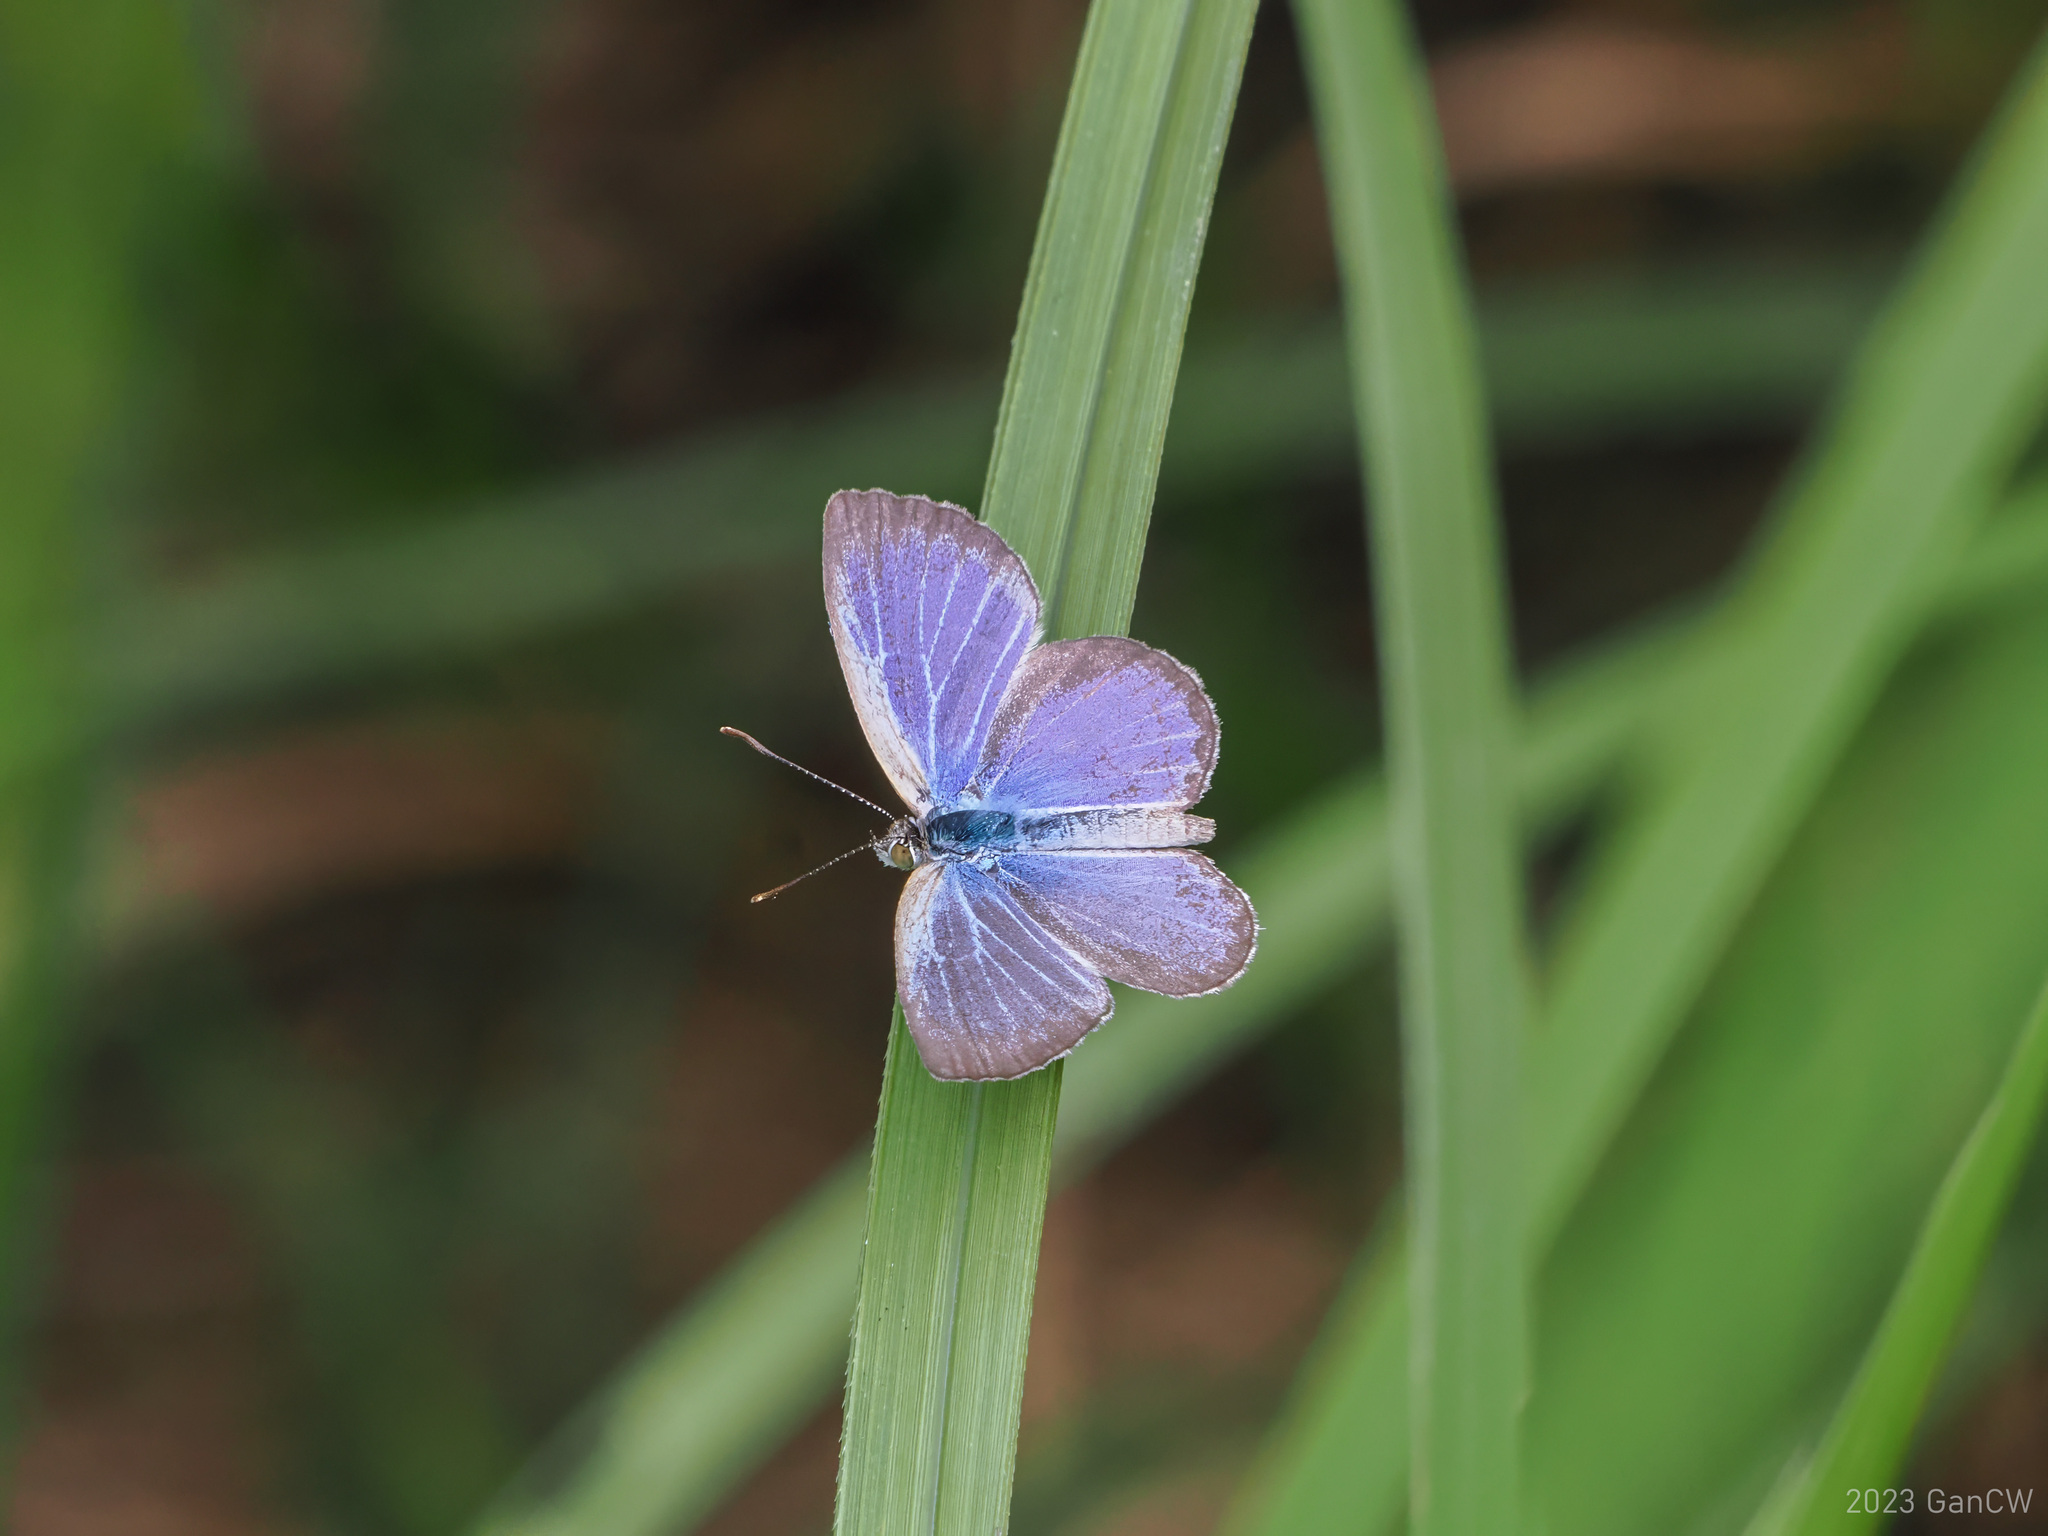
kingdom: Animalia
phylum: Arthropoda
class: Insecta
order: Lepidoptera
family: Lycaenidae
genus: Zizina
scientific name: Zizina otis
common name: Lesser grass blue
